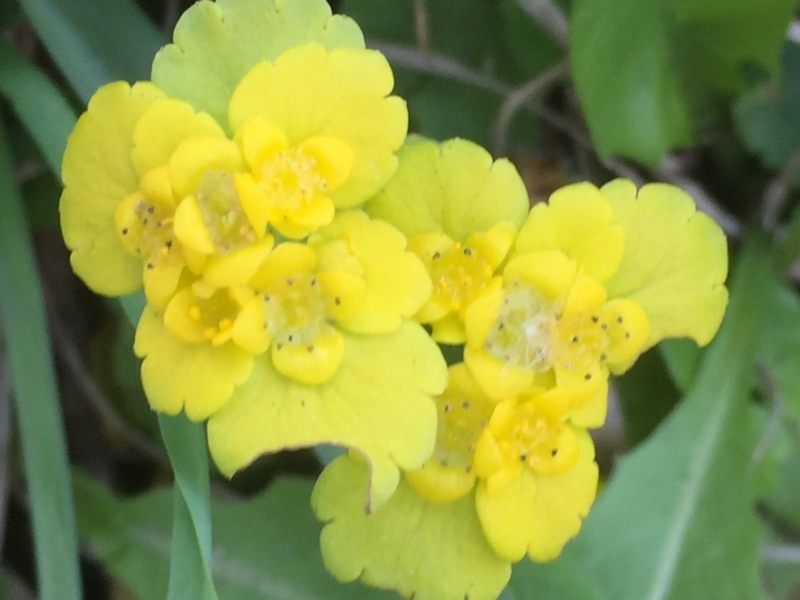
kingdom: Plantae
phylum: Tracheophyta
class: Magnoliopsida
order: Saxifragales
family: Saxifragaceae
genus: Chrysosplenium
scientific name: Chrysosplenium alternifolium
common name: Alternate-leaved golden-saxifrage
